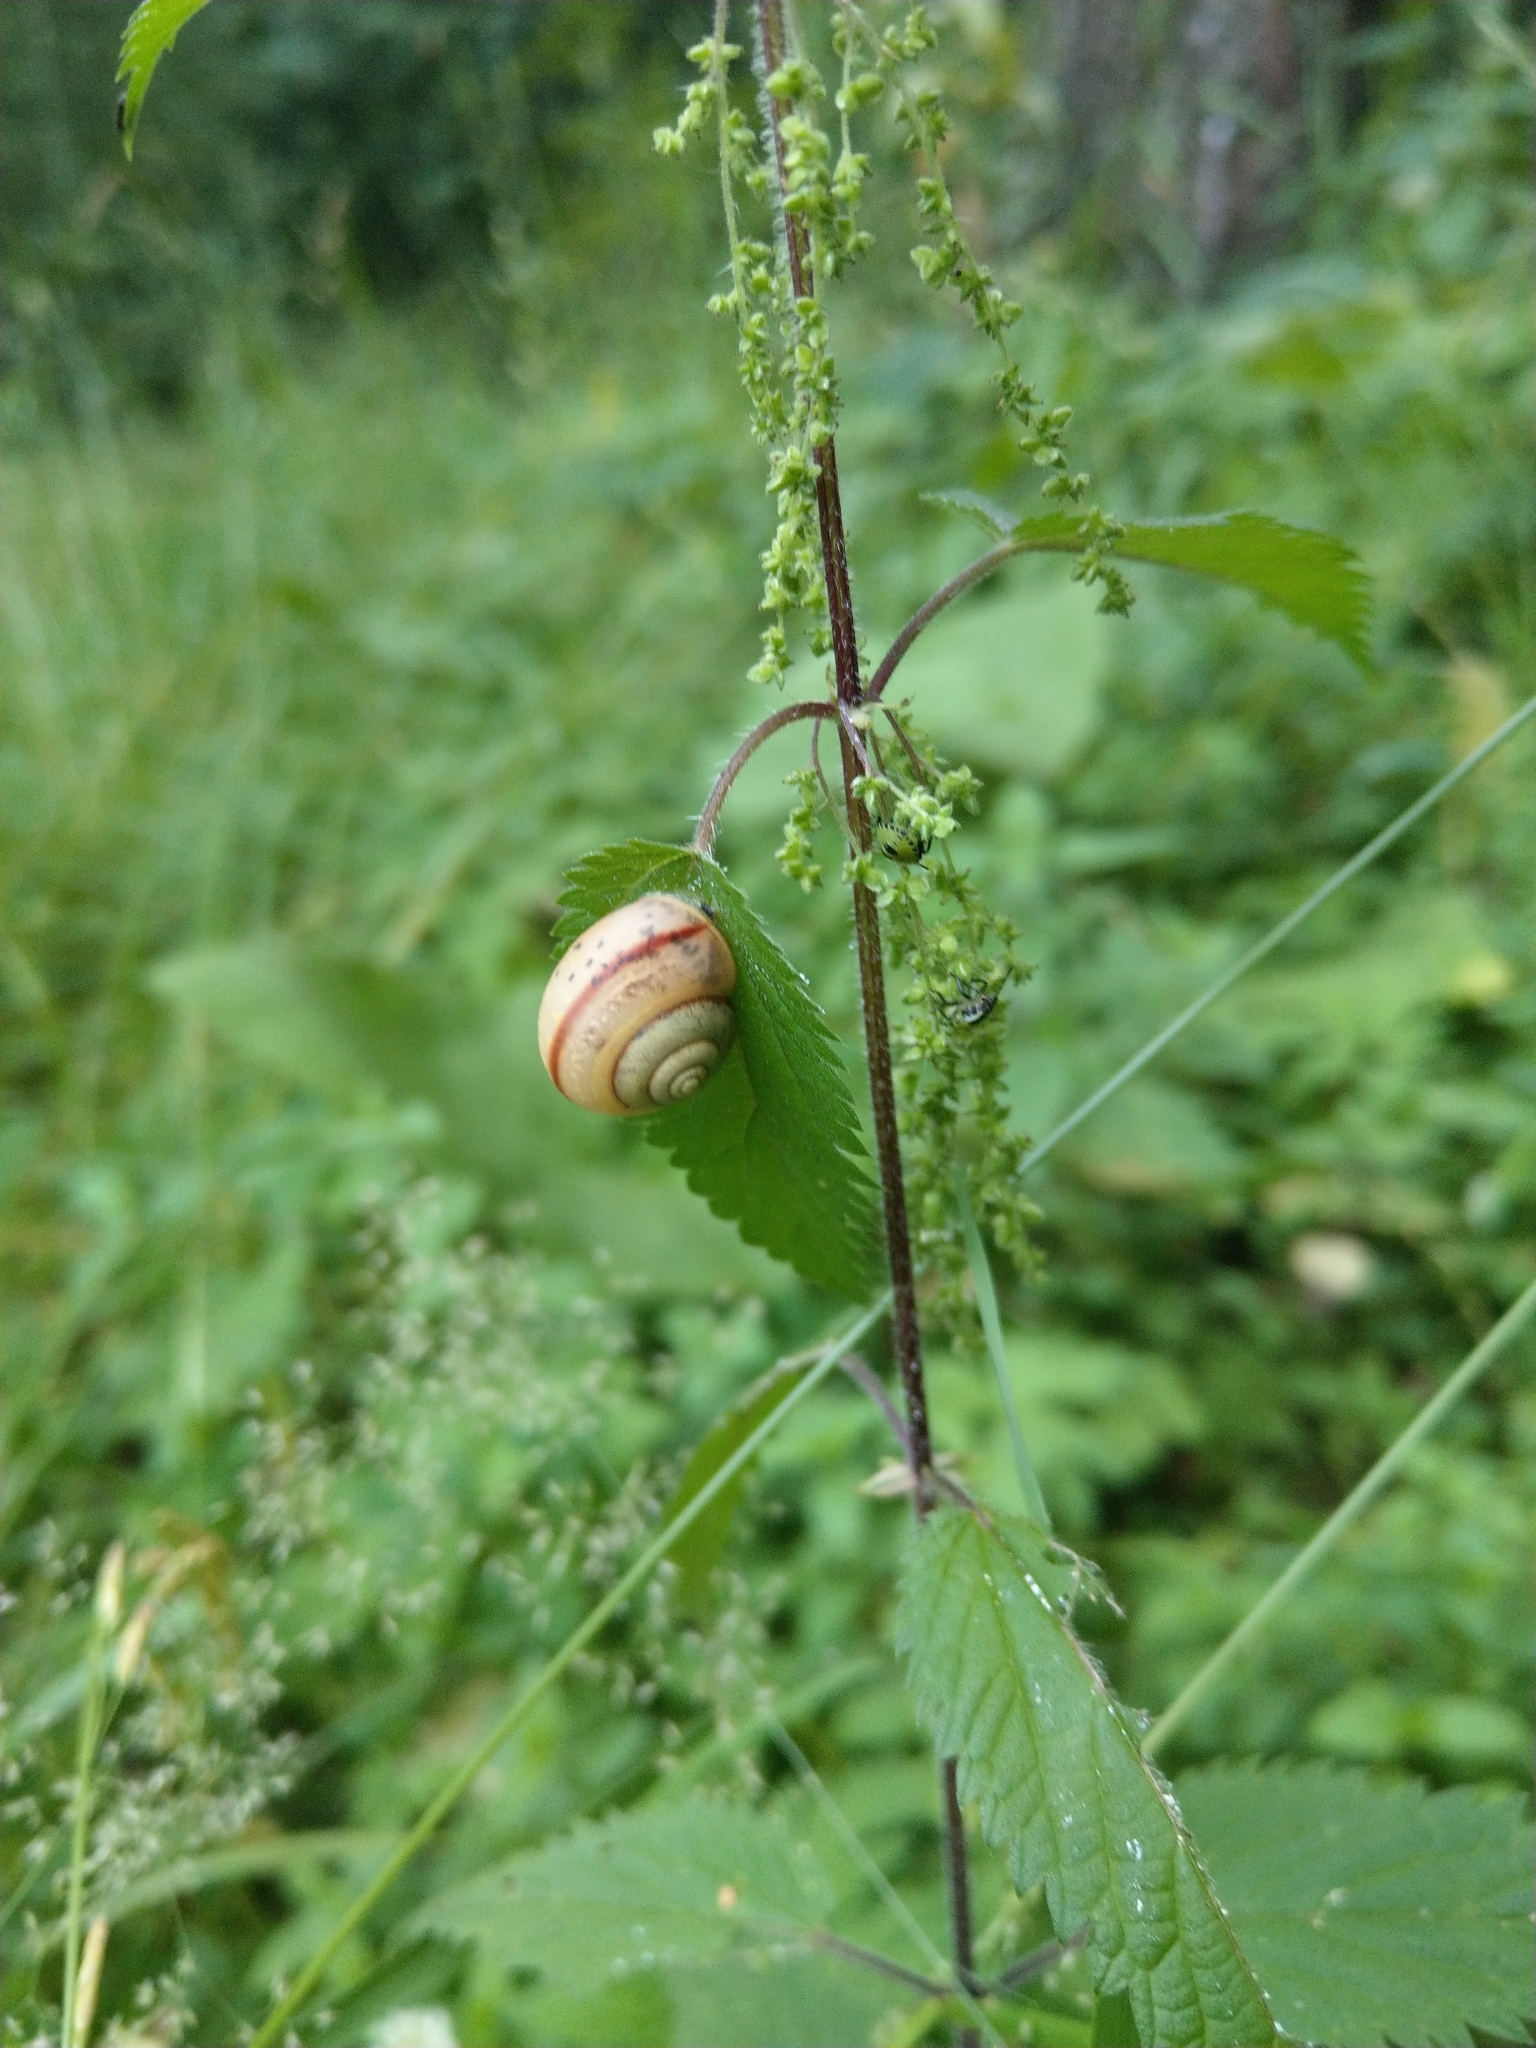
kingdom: Animalia
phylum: Mollusca
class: Gastropoda
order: Stylommatophora
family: Camaenidae
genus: Fruticicola
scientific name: Fruticicola fruticum
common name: Bush snail
